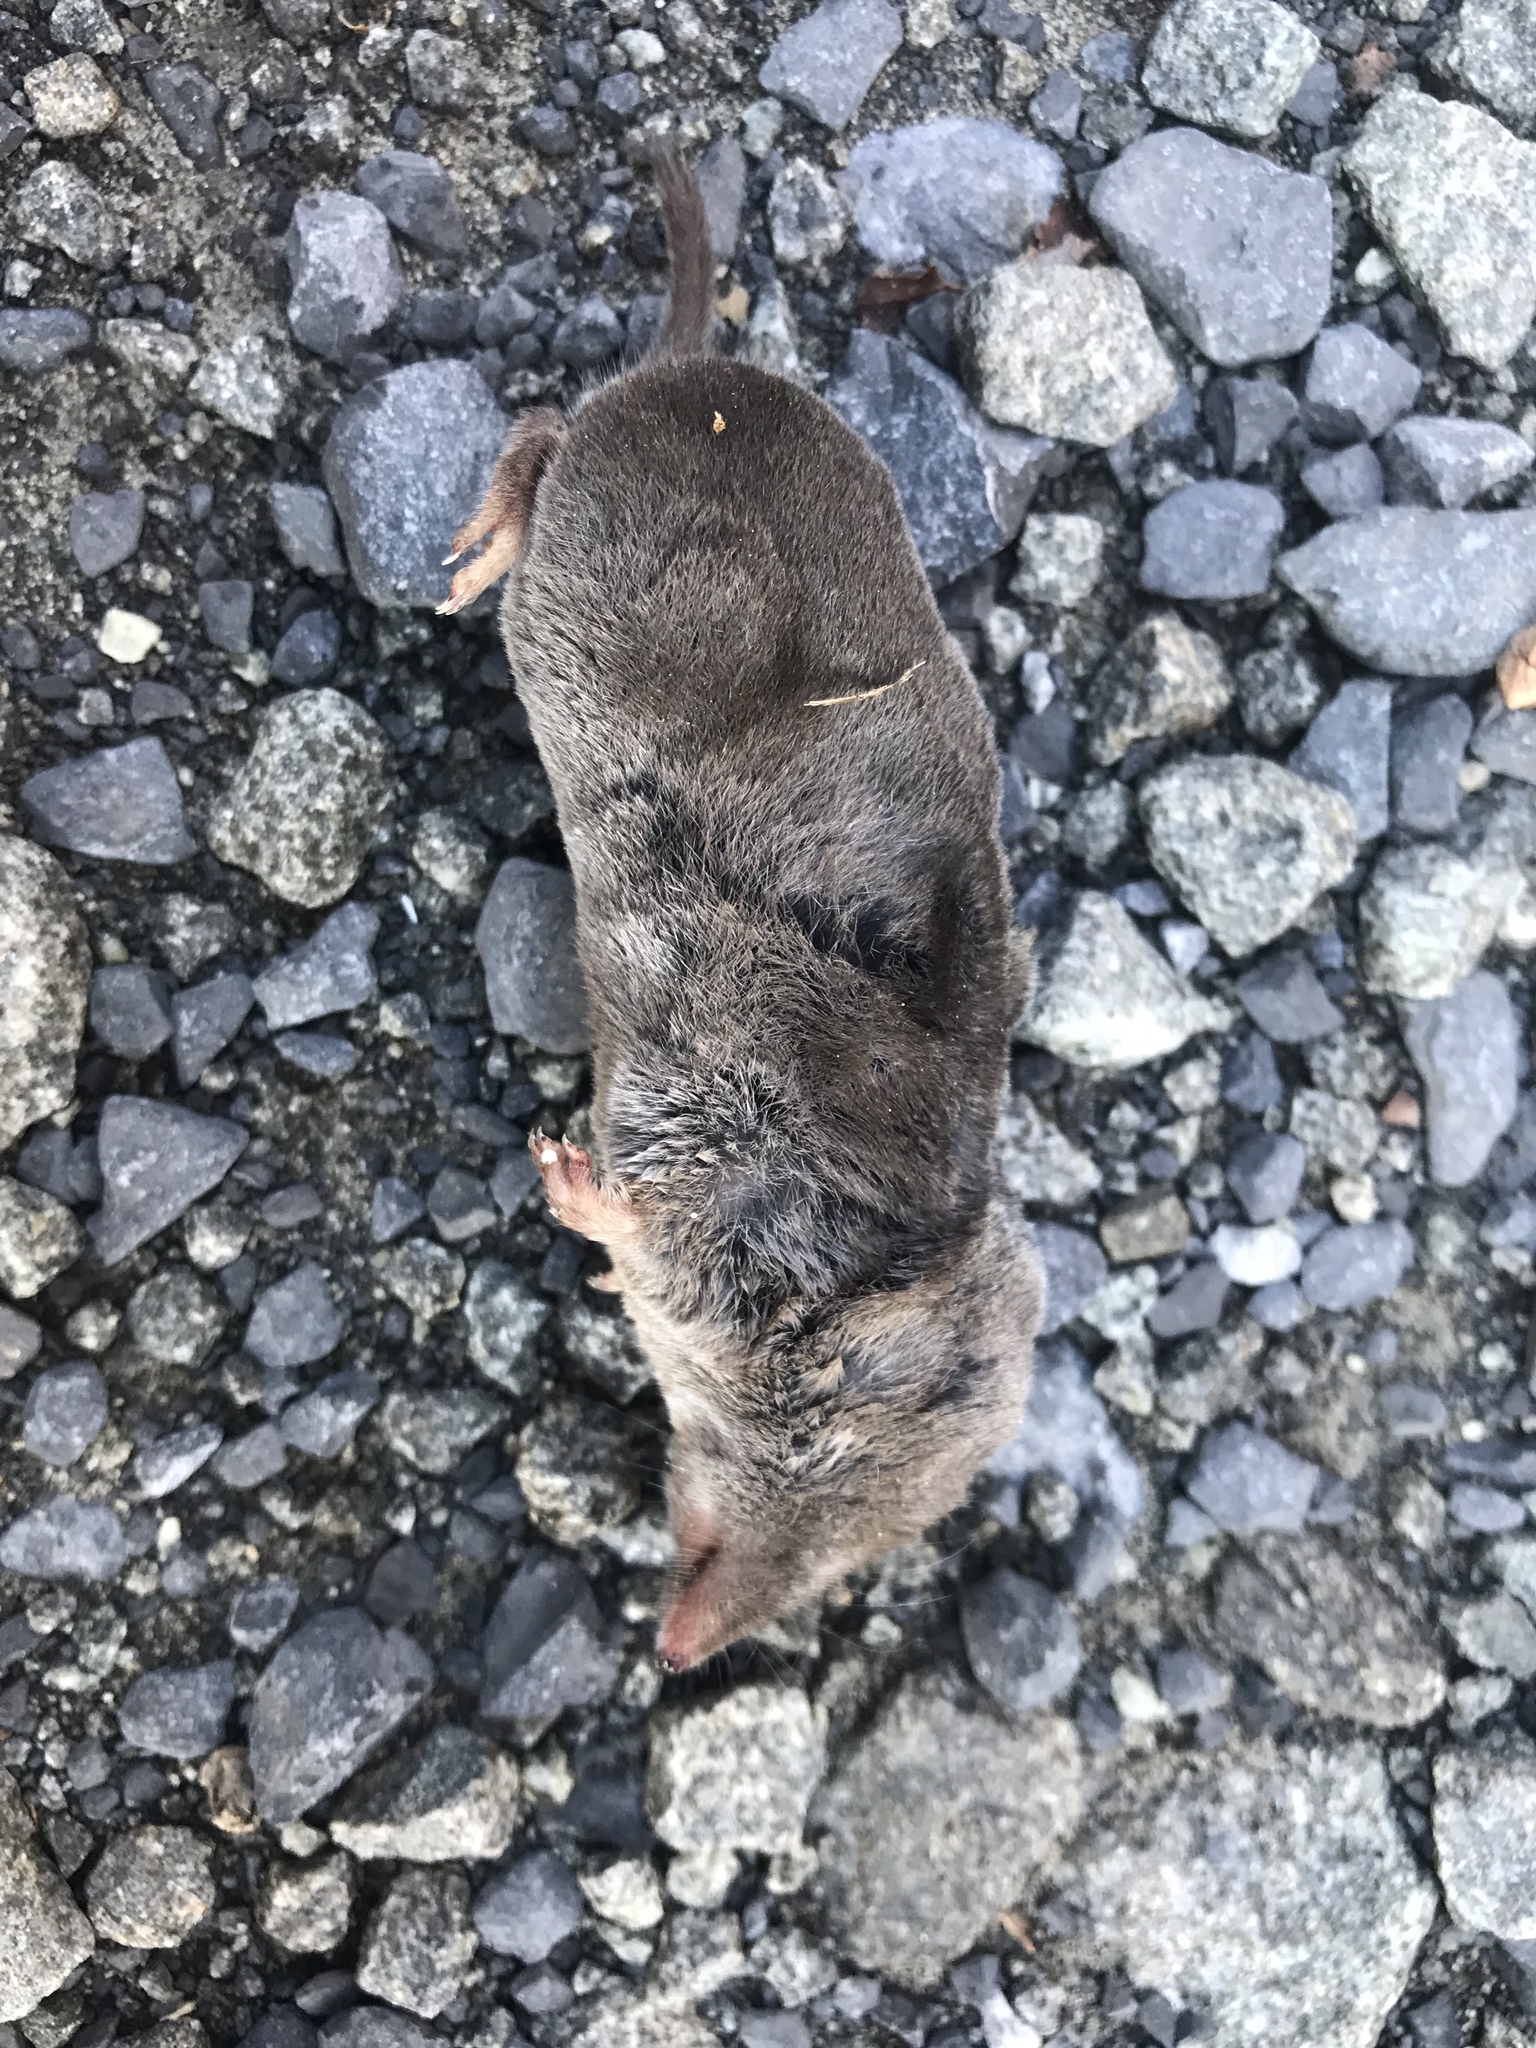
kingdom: Animalia
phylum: Chordata
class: Mammalia
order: Soricomorpha
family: Soricidae
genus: Blarina
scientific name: Blarina brevicauda
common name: Northern short-tailed shrew
